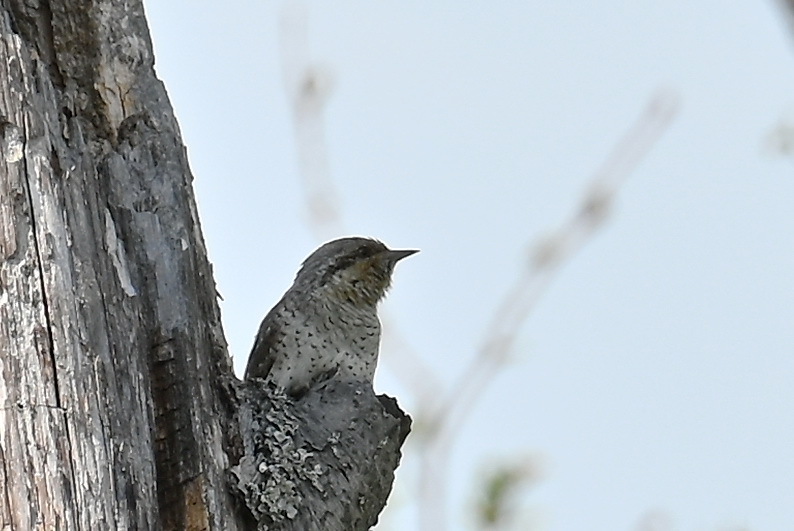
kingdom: Animalia
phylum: Chordata
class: Aves
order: Piciformes
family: Picidae
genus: Jynx
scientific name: Jynx torquilla
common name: Eurasian wryneck
